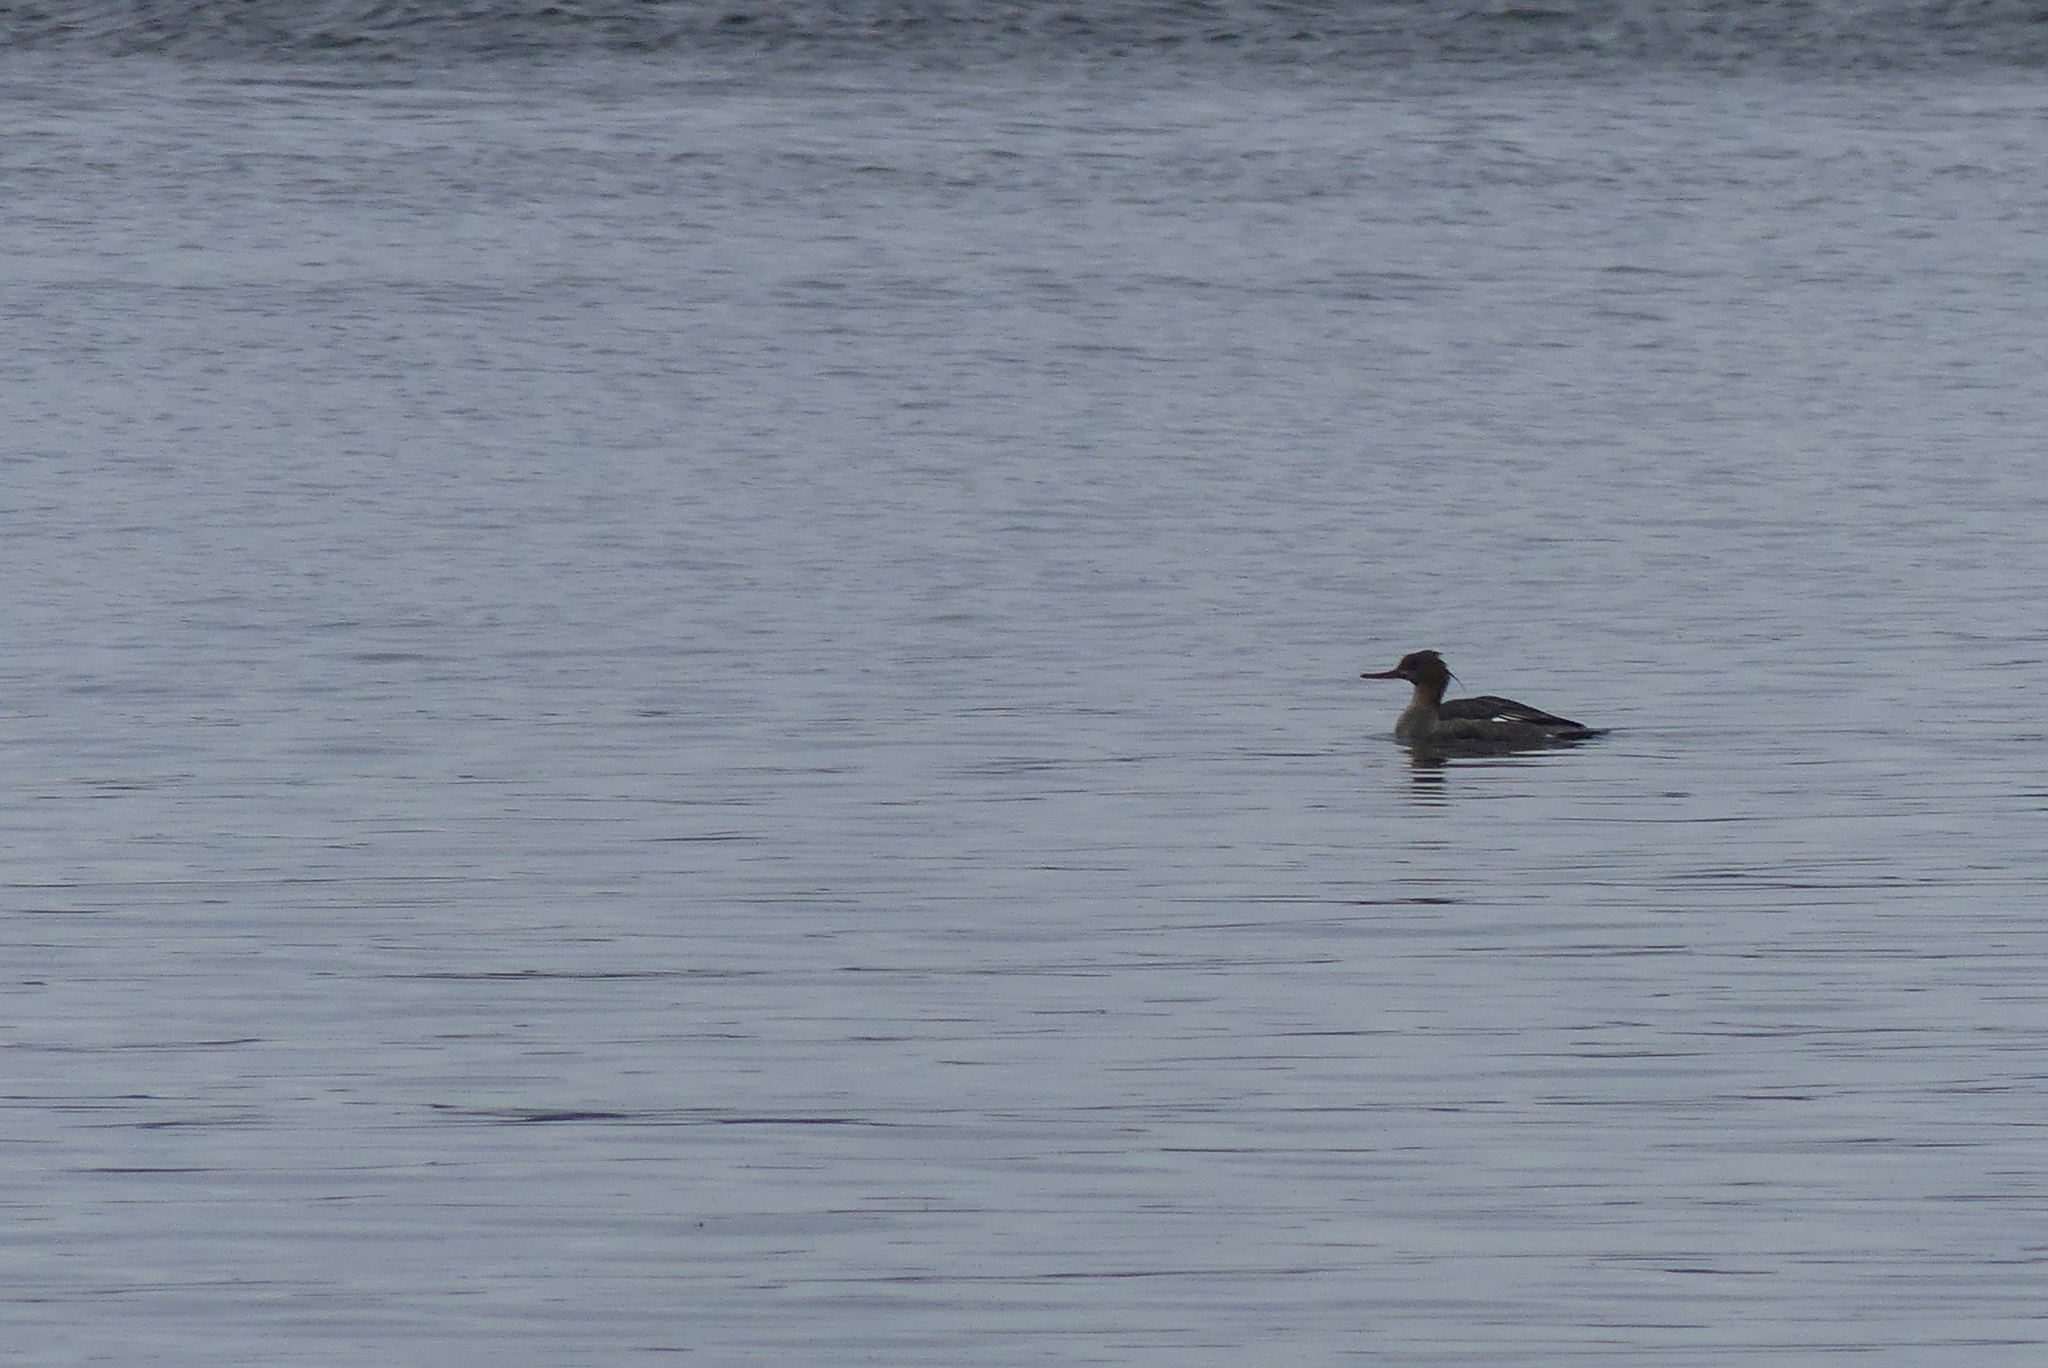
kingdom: Animalia
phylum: Chordata
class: Aves
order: Anseriformes
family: Anatidae
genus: Mergus
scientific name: Mergus serrator
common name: Red-breasted merganser
